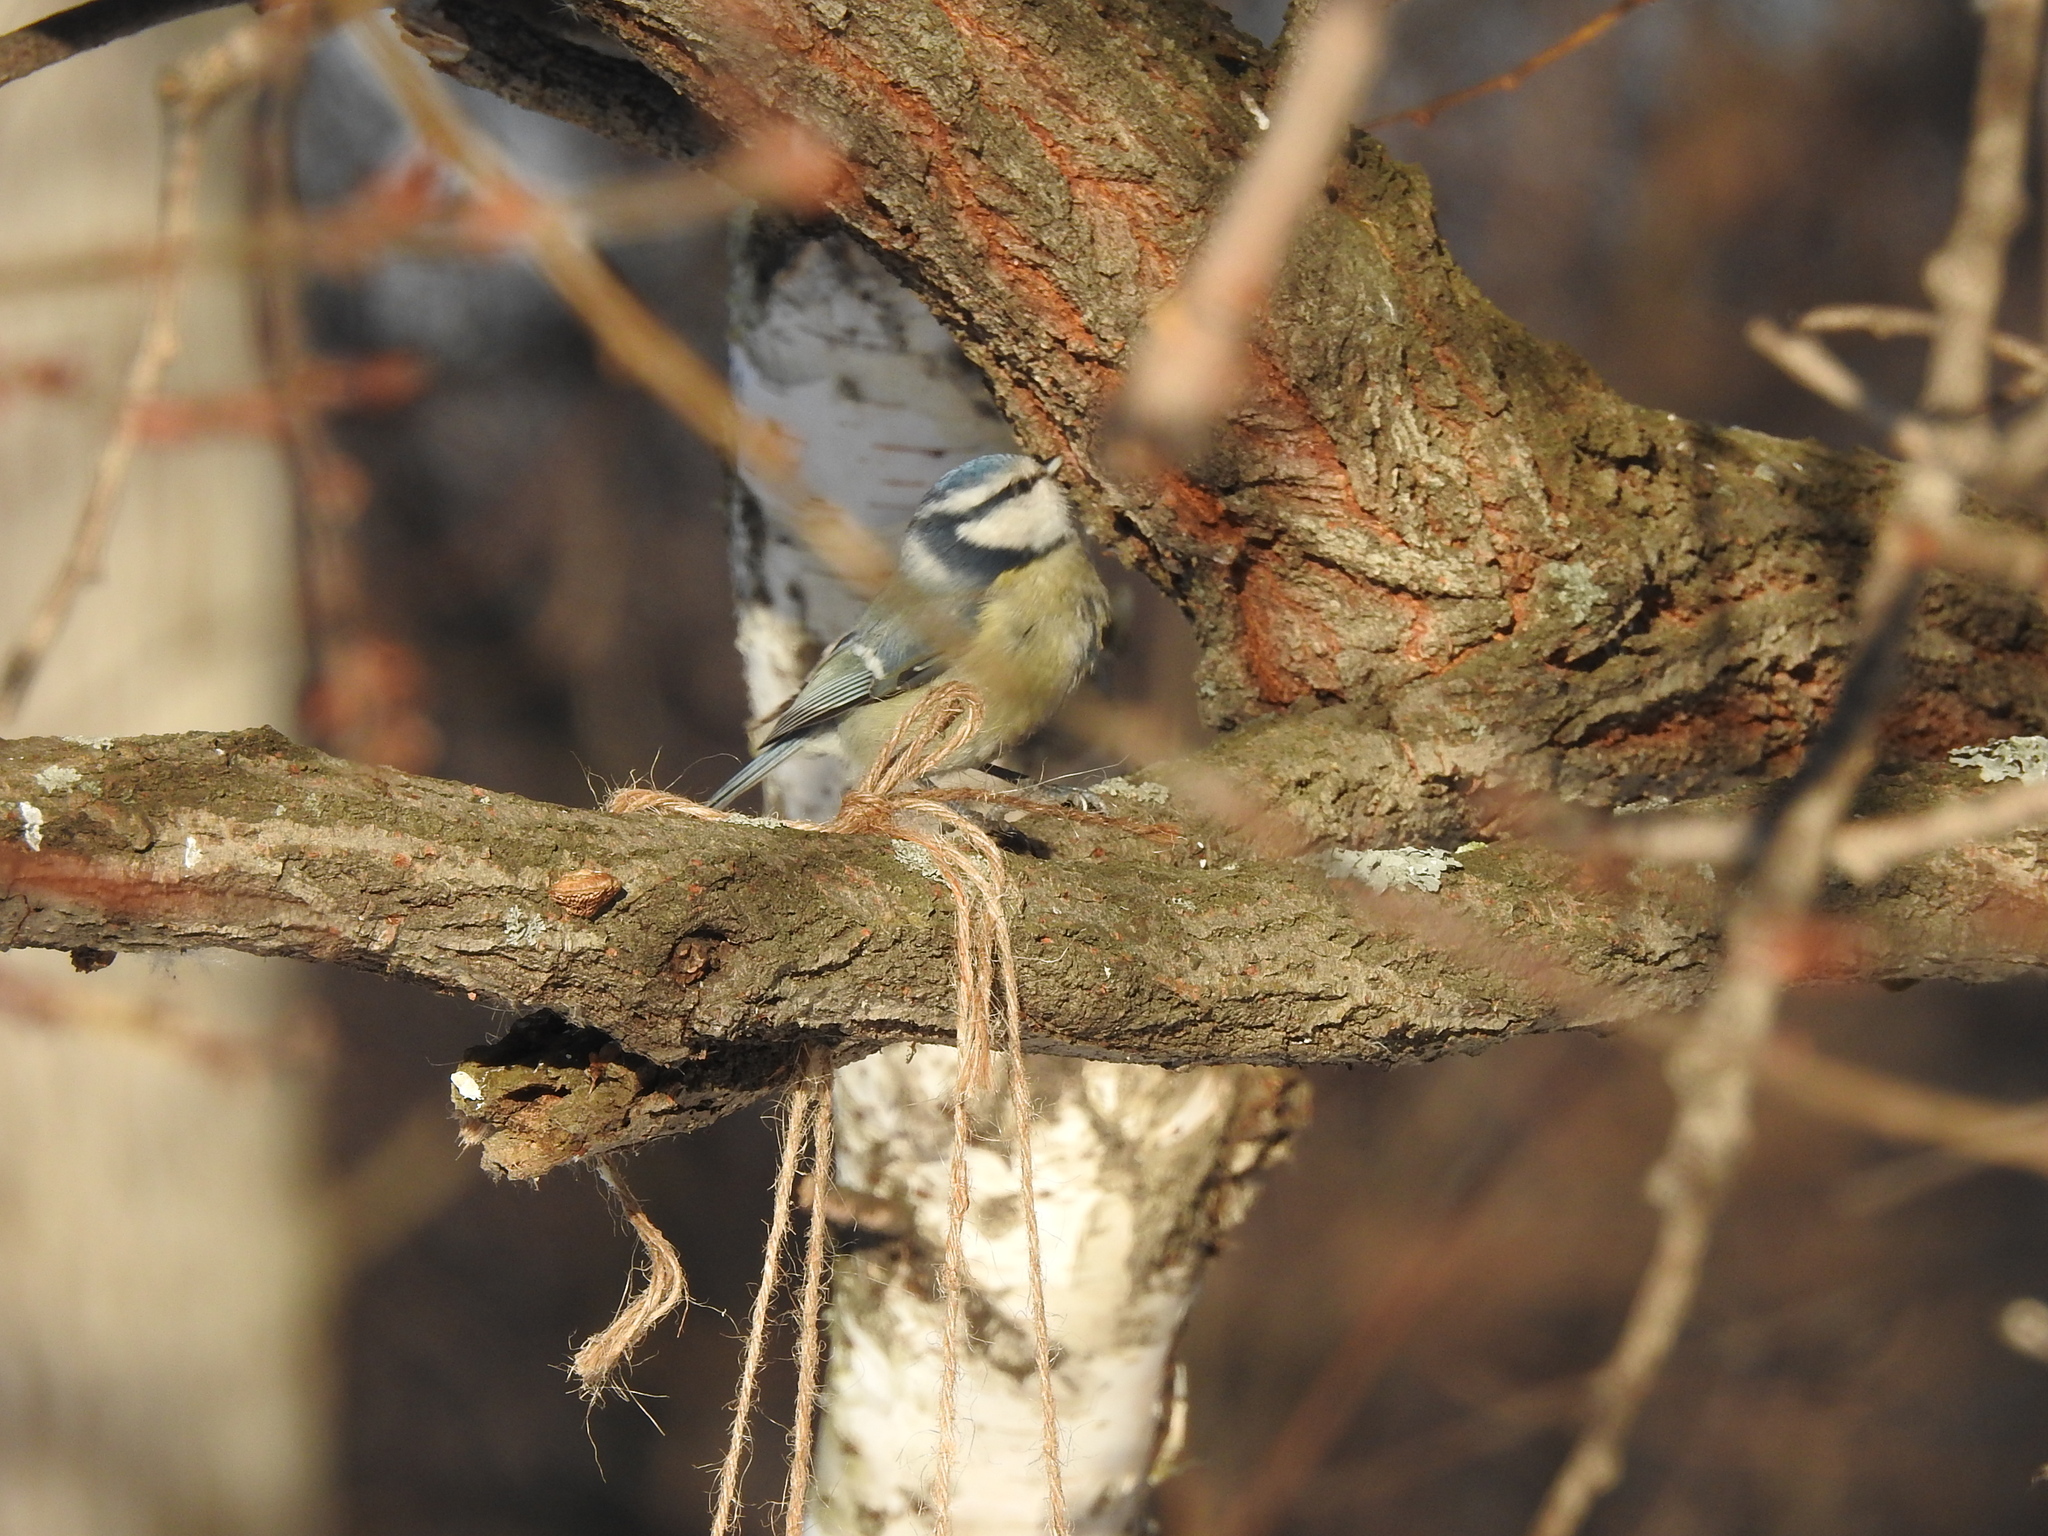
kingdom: Animalia
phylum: Chordata
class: Aves
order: Passeriformes
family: Paridae
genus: Cyanistes
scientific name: Cyanistes caeruleus
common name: Eurasian blue tit
